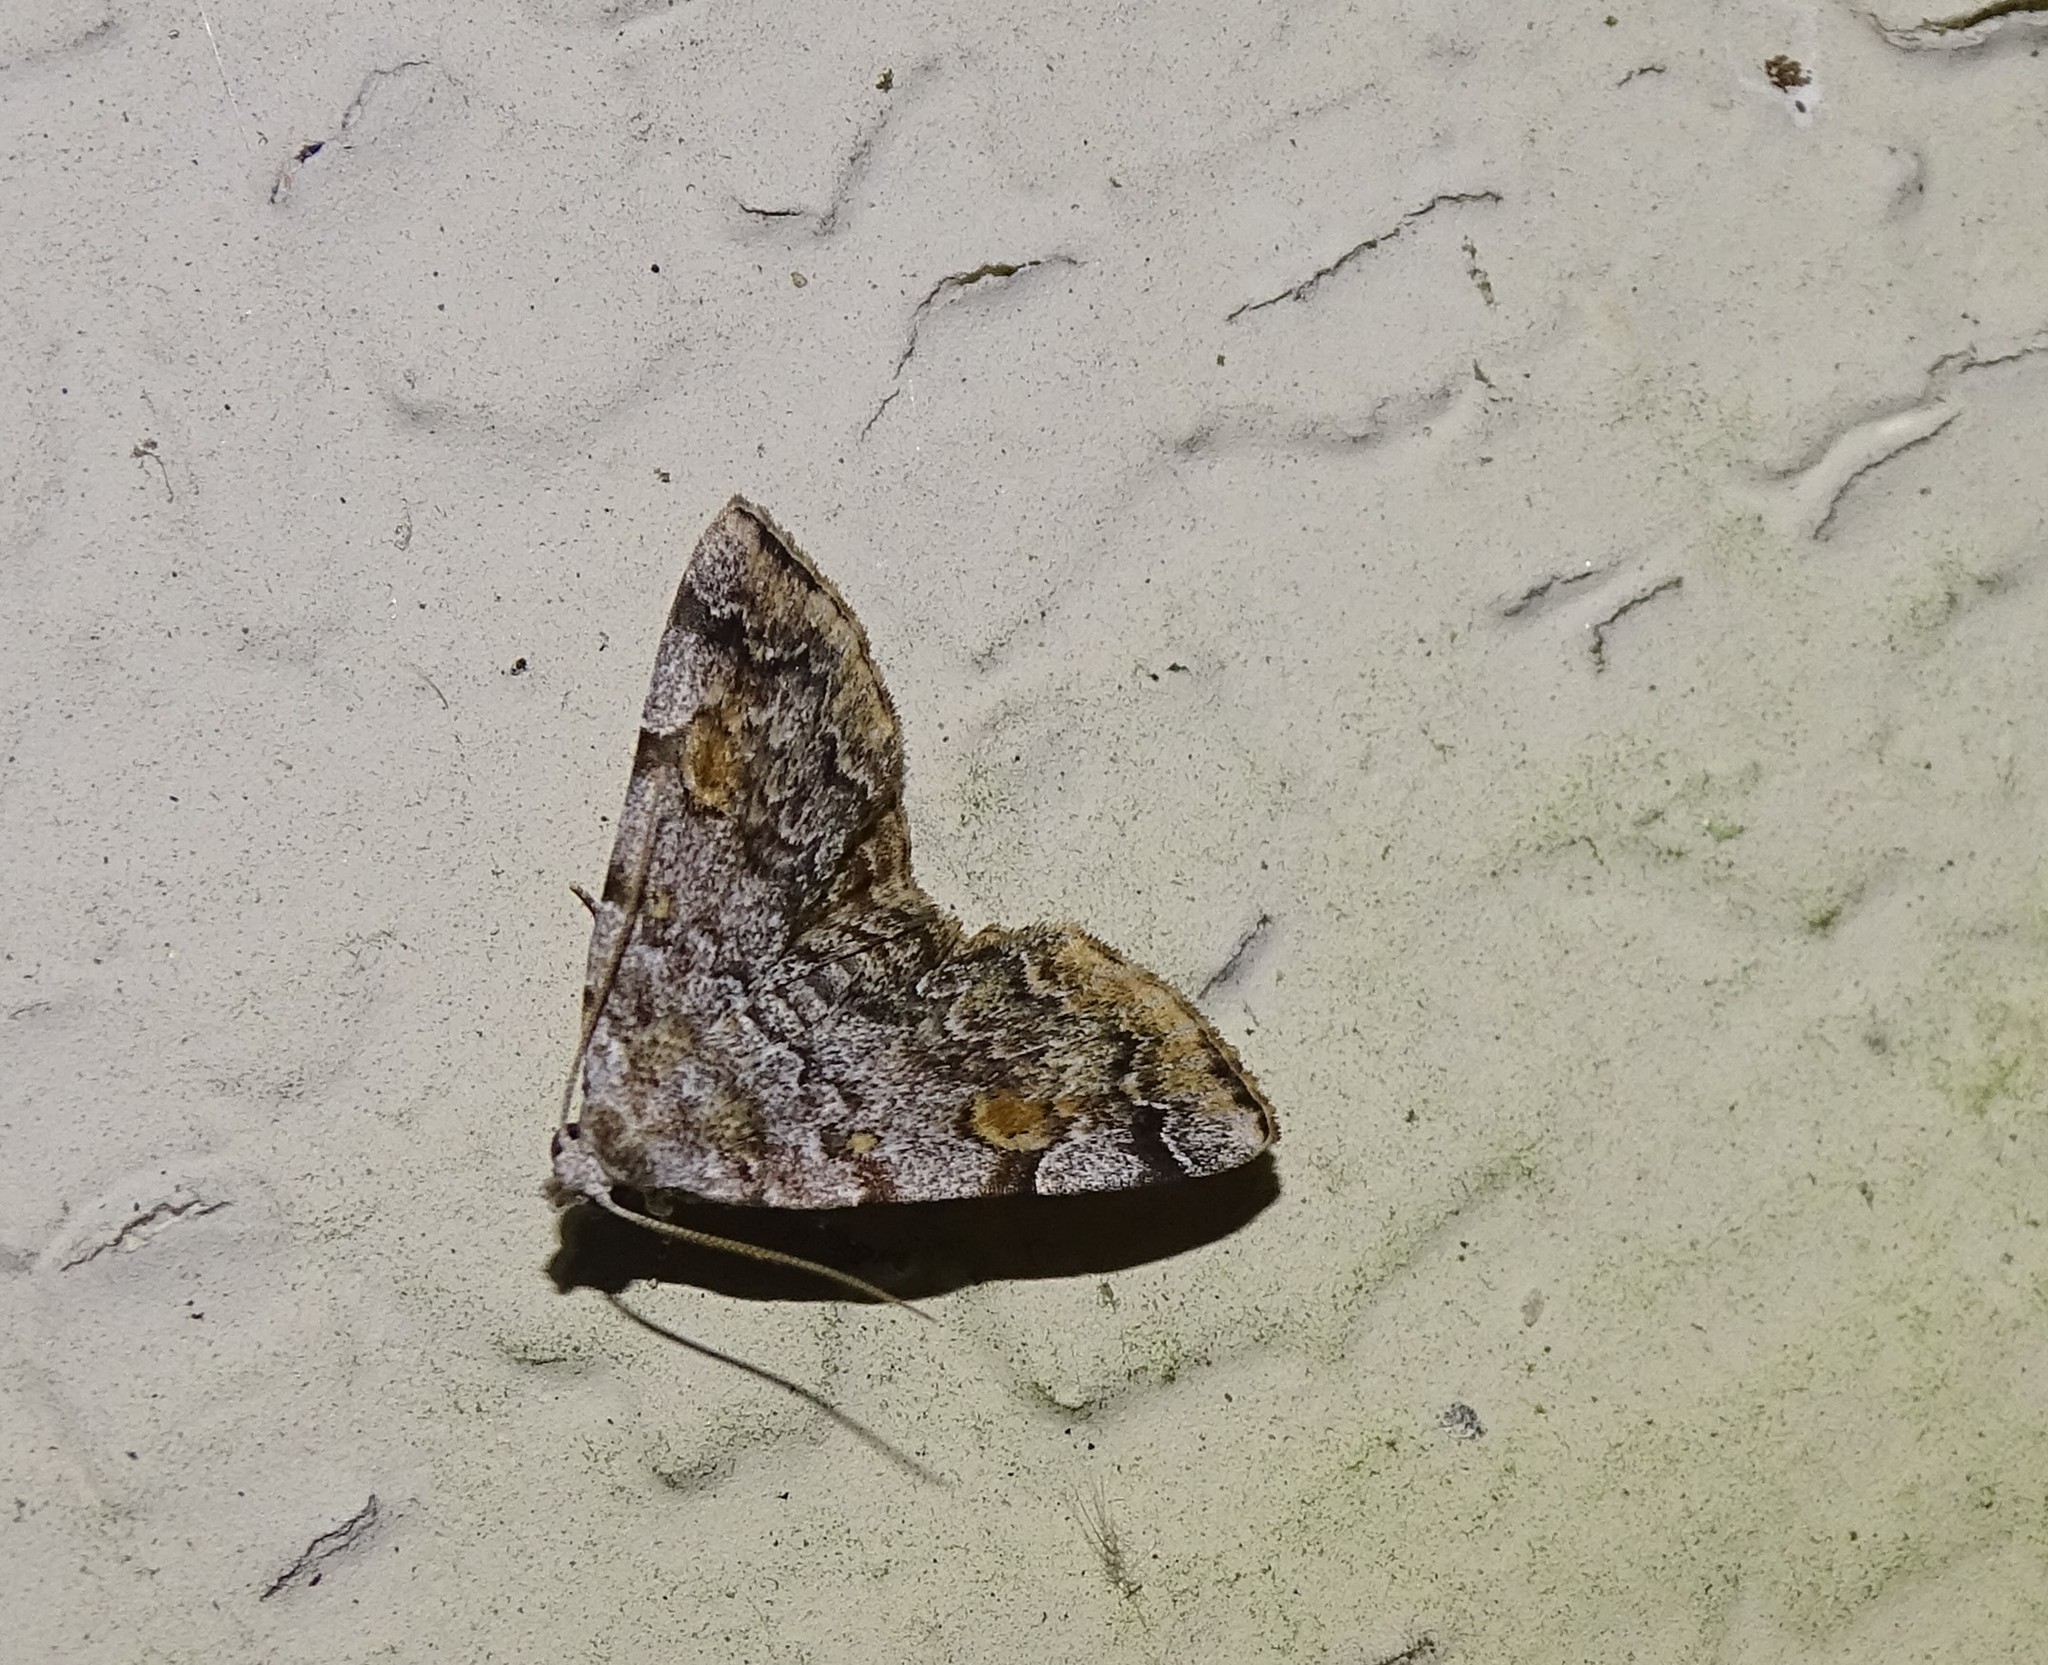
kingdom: Animalia
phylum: Arthropoda
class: Insecta
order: Lepidoptera
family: Erebidae
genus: Idia
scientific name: Idia americalis
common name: American idia moth
